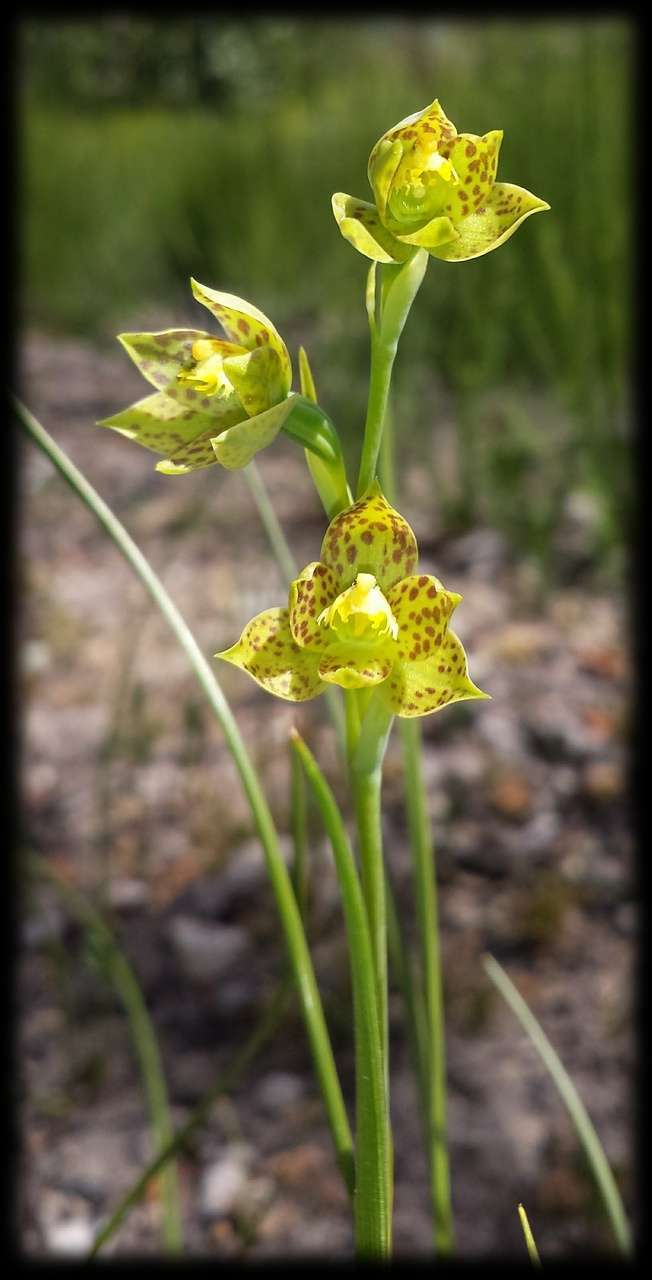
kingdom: Plantae
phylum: Tracheophyta
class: Liliopsida
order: Asparagales
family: Orchidaceae
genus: Thelymitra
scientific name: Thelymitra benthamiana
